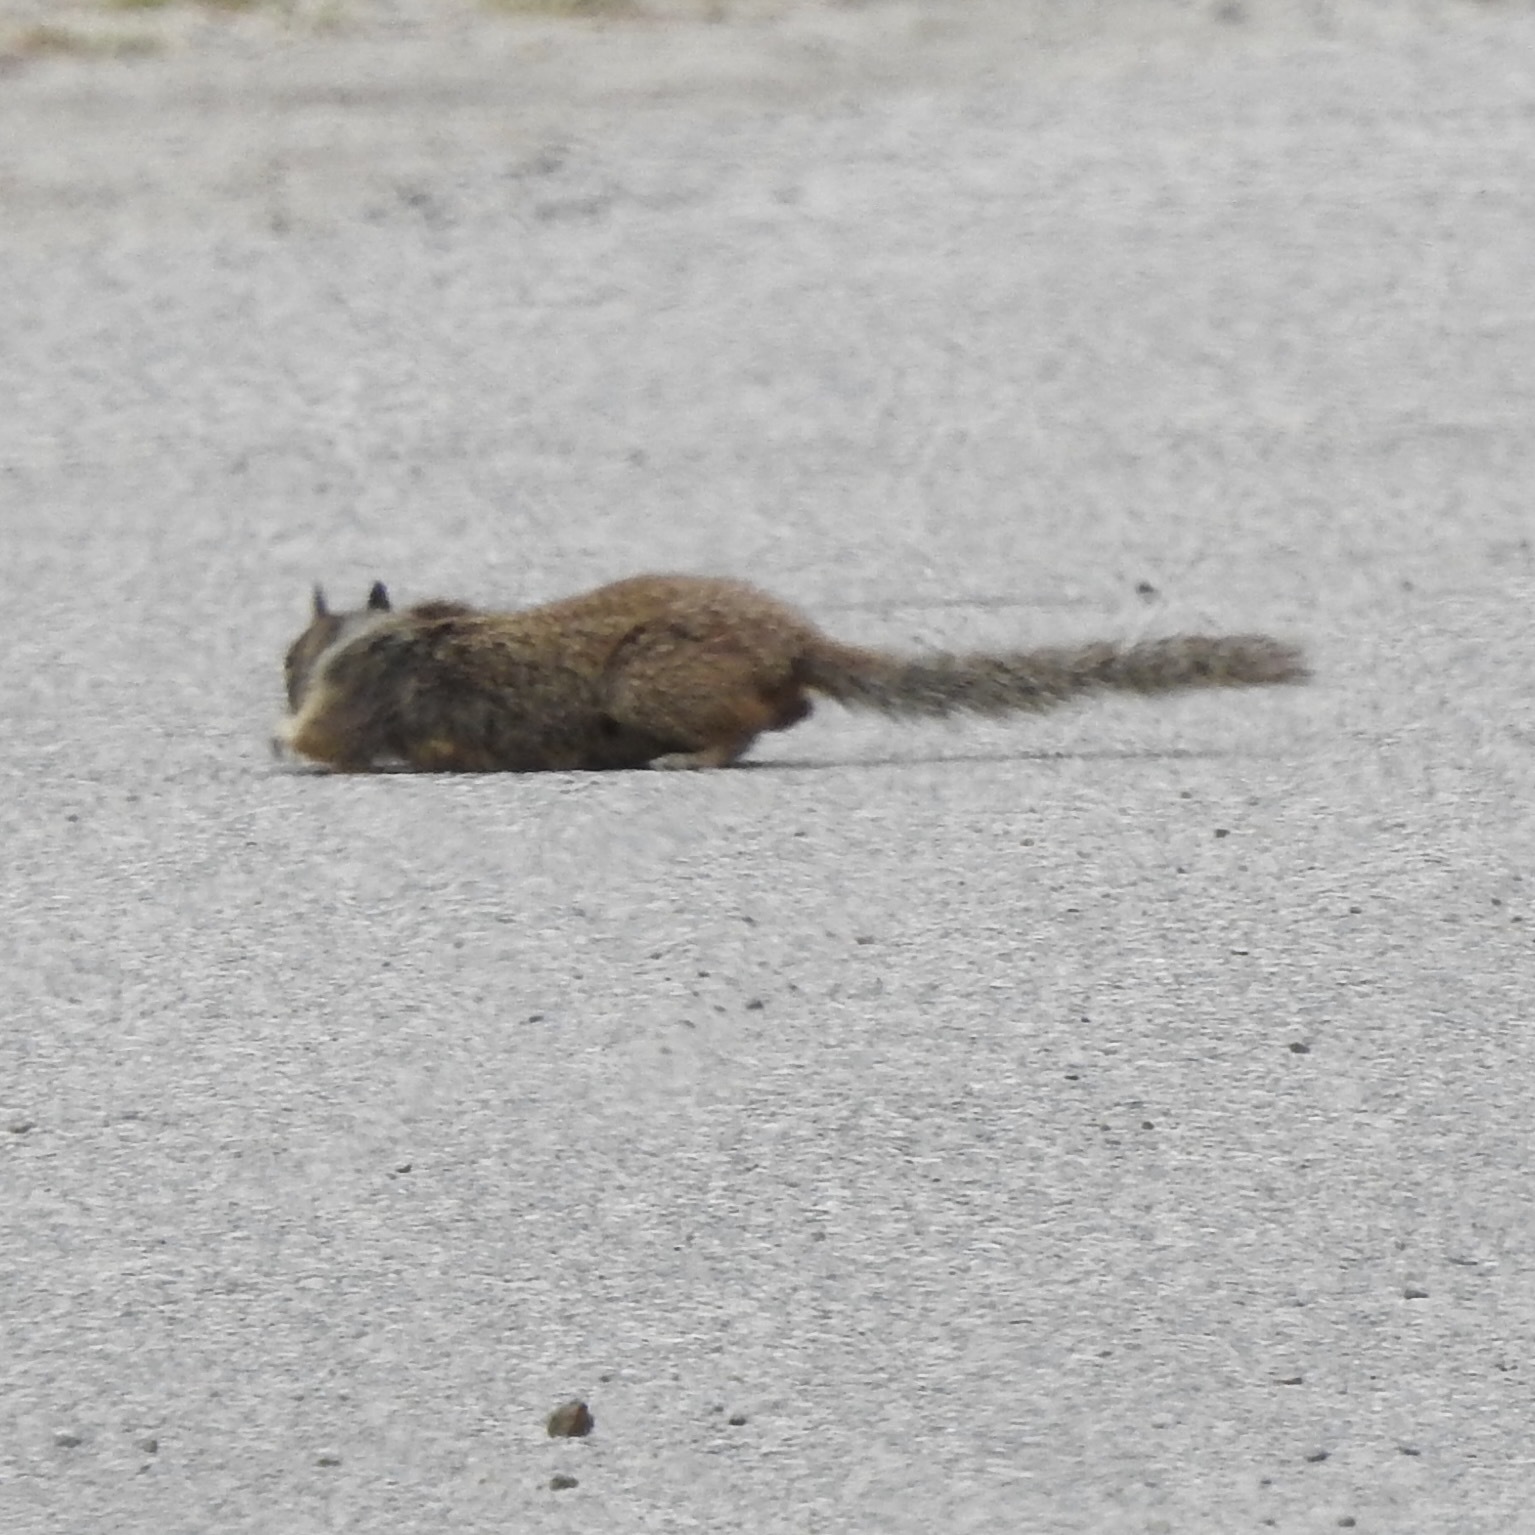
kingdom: Animalia
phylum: Chordata
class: Mammalia
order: Rodentia
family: Sciuridae
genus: Otospermophilus
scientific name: Otospermophilus beecheyi
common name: California ground squirrel
